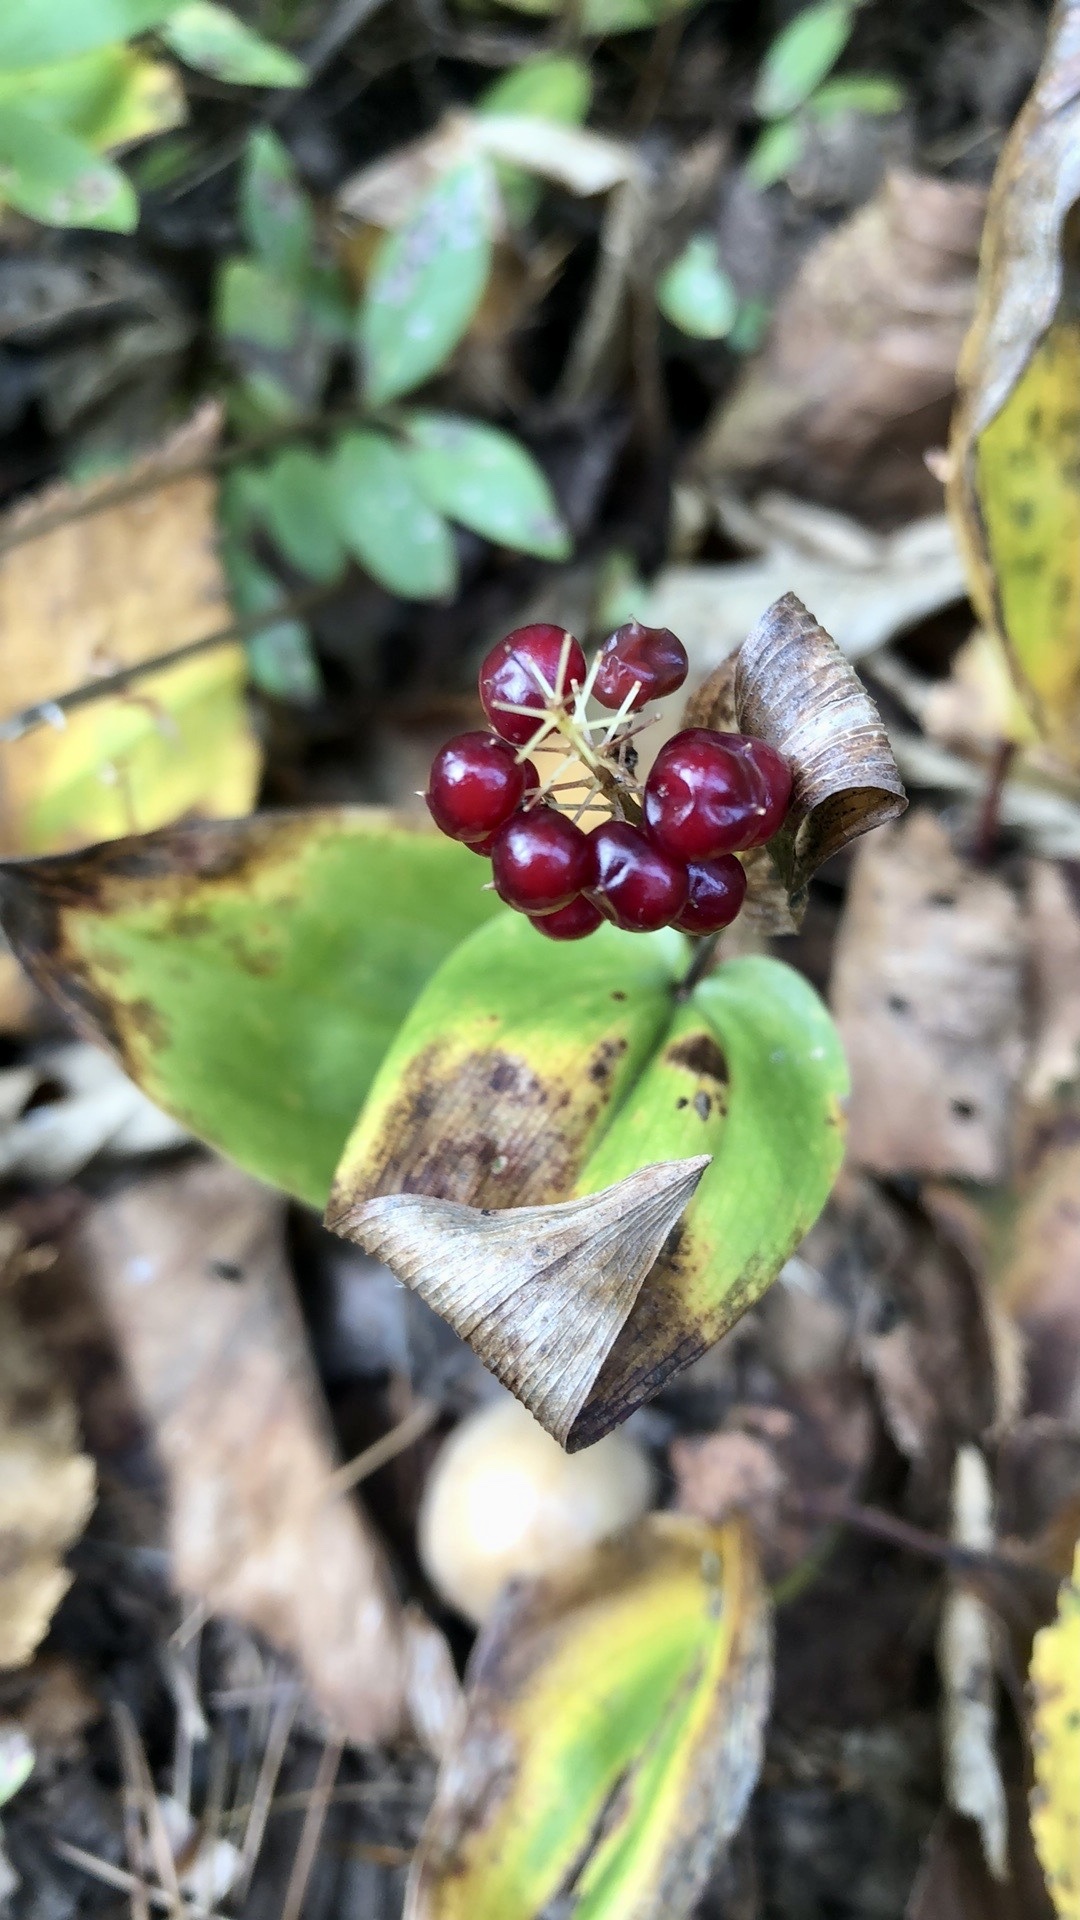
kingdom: Plantae
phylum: Tracheophyta
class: Liliopsida
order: Asparagales
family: Asparagaceae
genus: Maianthemum
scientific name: Maianthemum canadense
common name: False lily-of-the-valley
